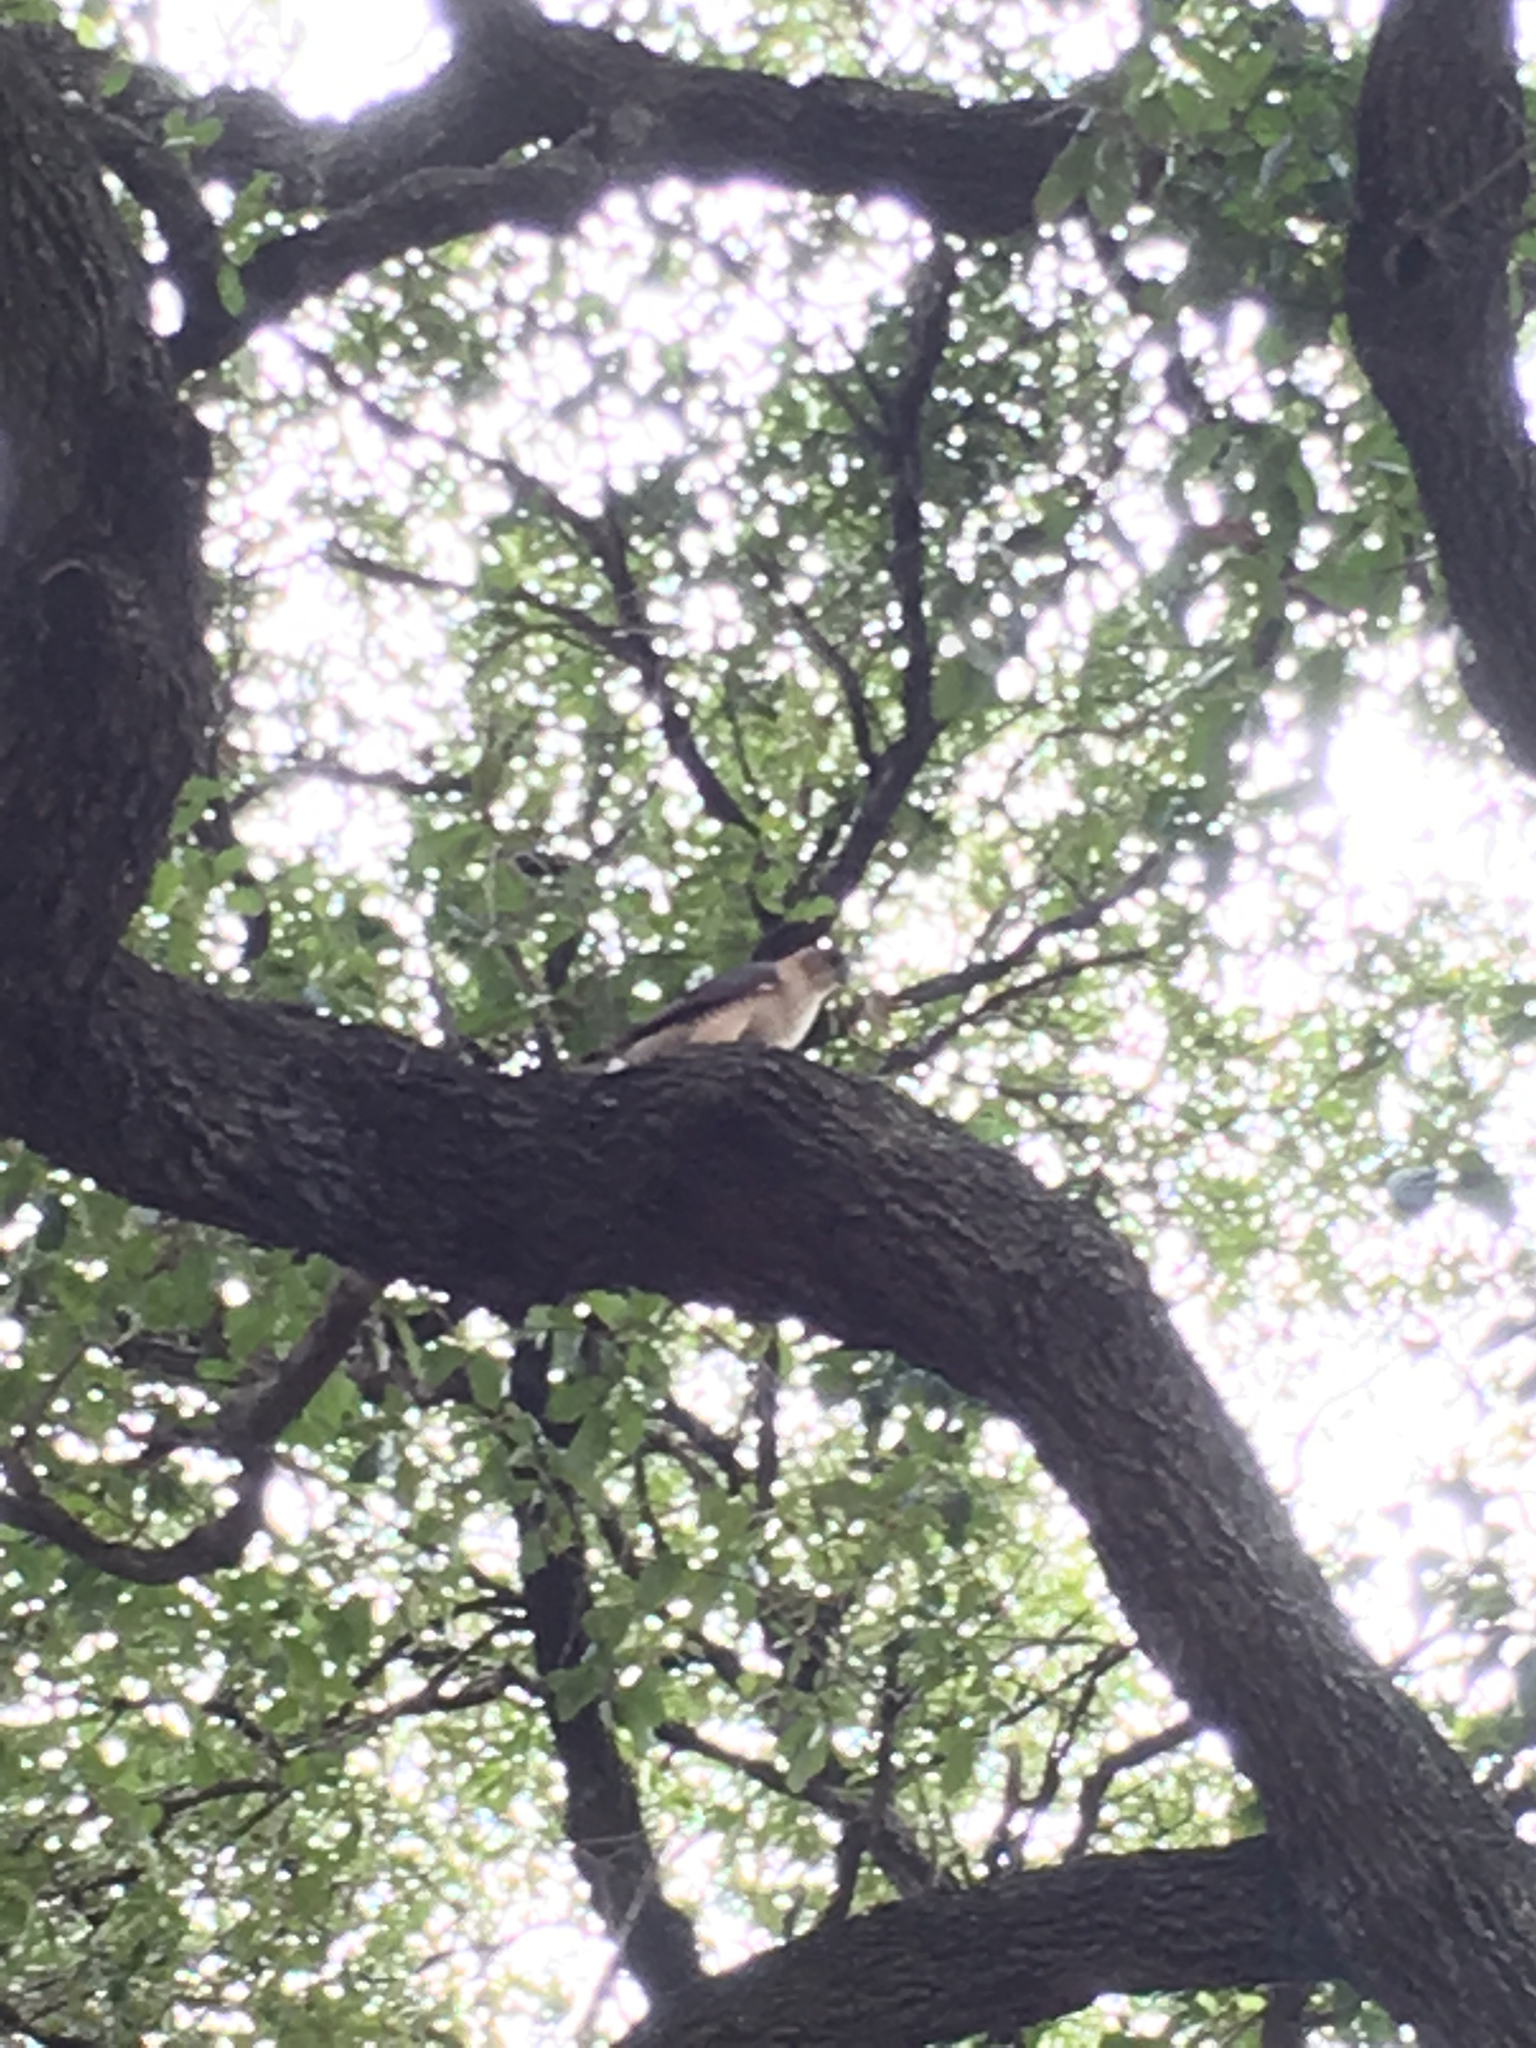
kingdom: Animalia
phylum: Chordata
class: Aves
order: Accipitriformes
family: Accipitridae
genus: Accipiter
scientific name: Accipiter cooperii
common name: Cooper's hawk
